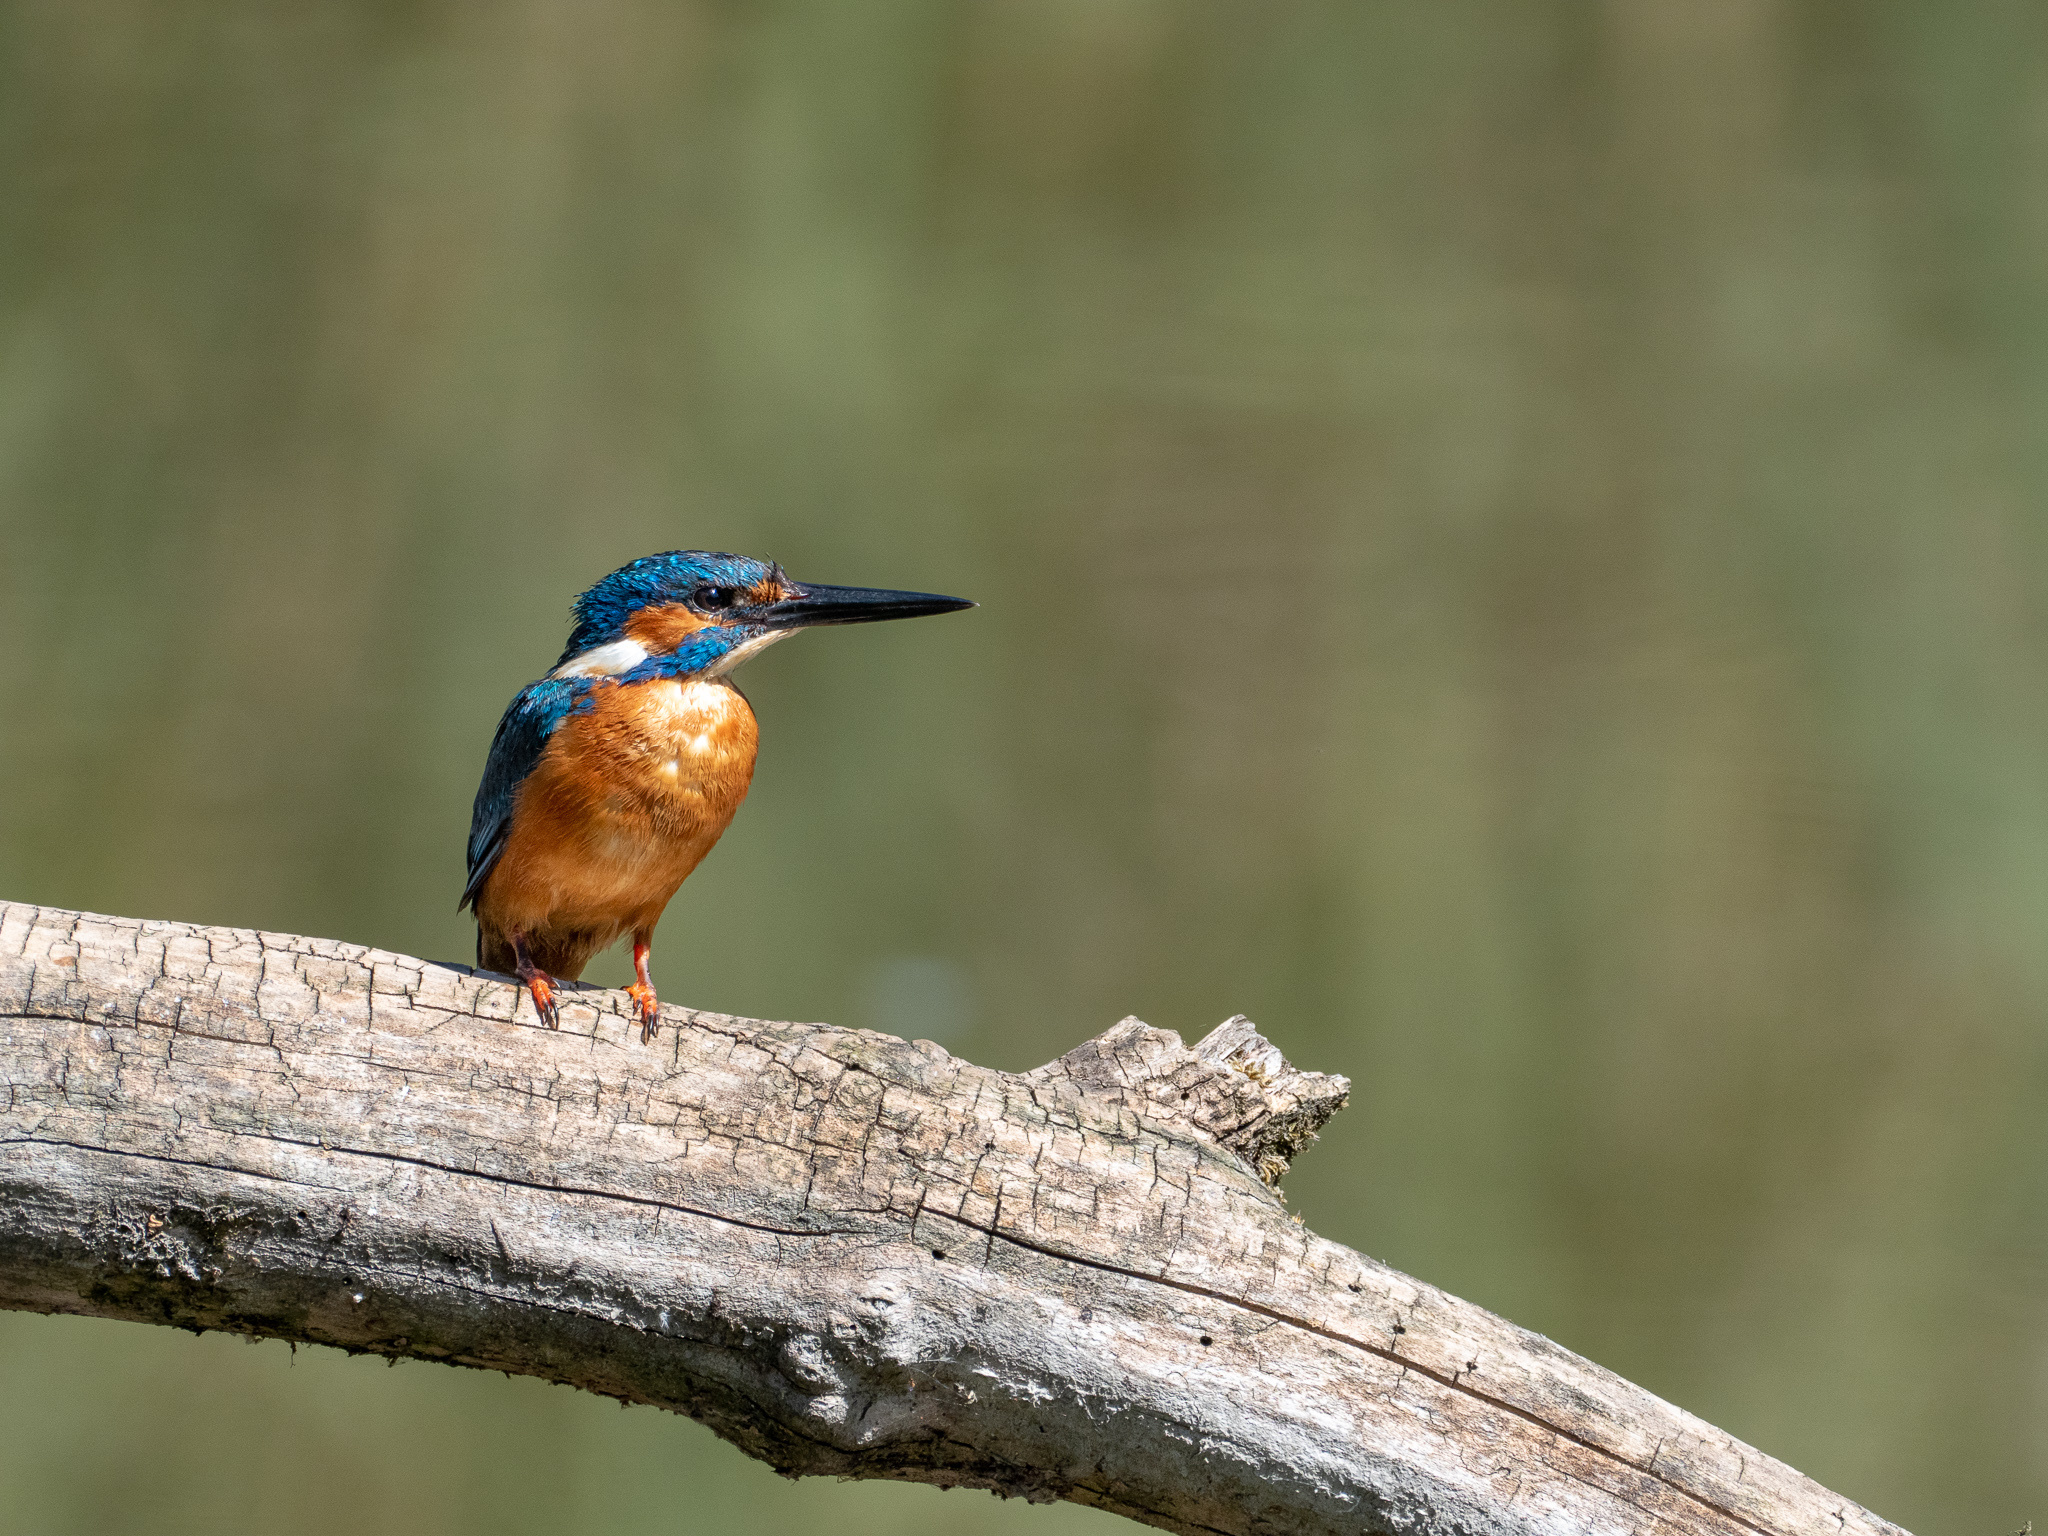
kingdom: Animalia
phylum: Chordata
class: Aves
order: Coraciiformes
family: Alcedinidae
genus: Alcedo
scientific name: Alcedo atthis
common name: Common kingfisher
